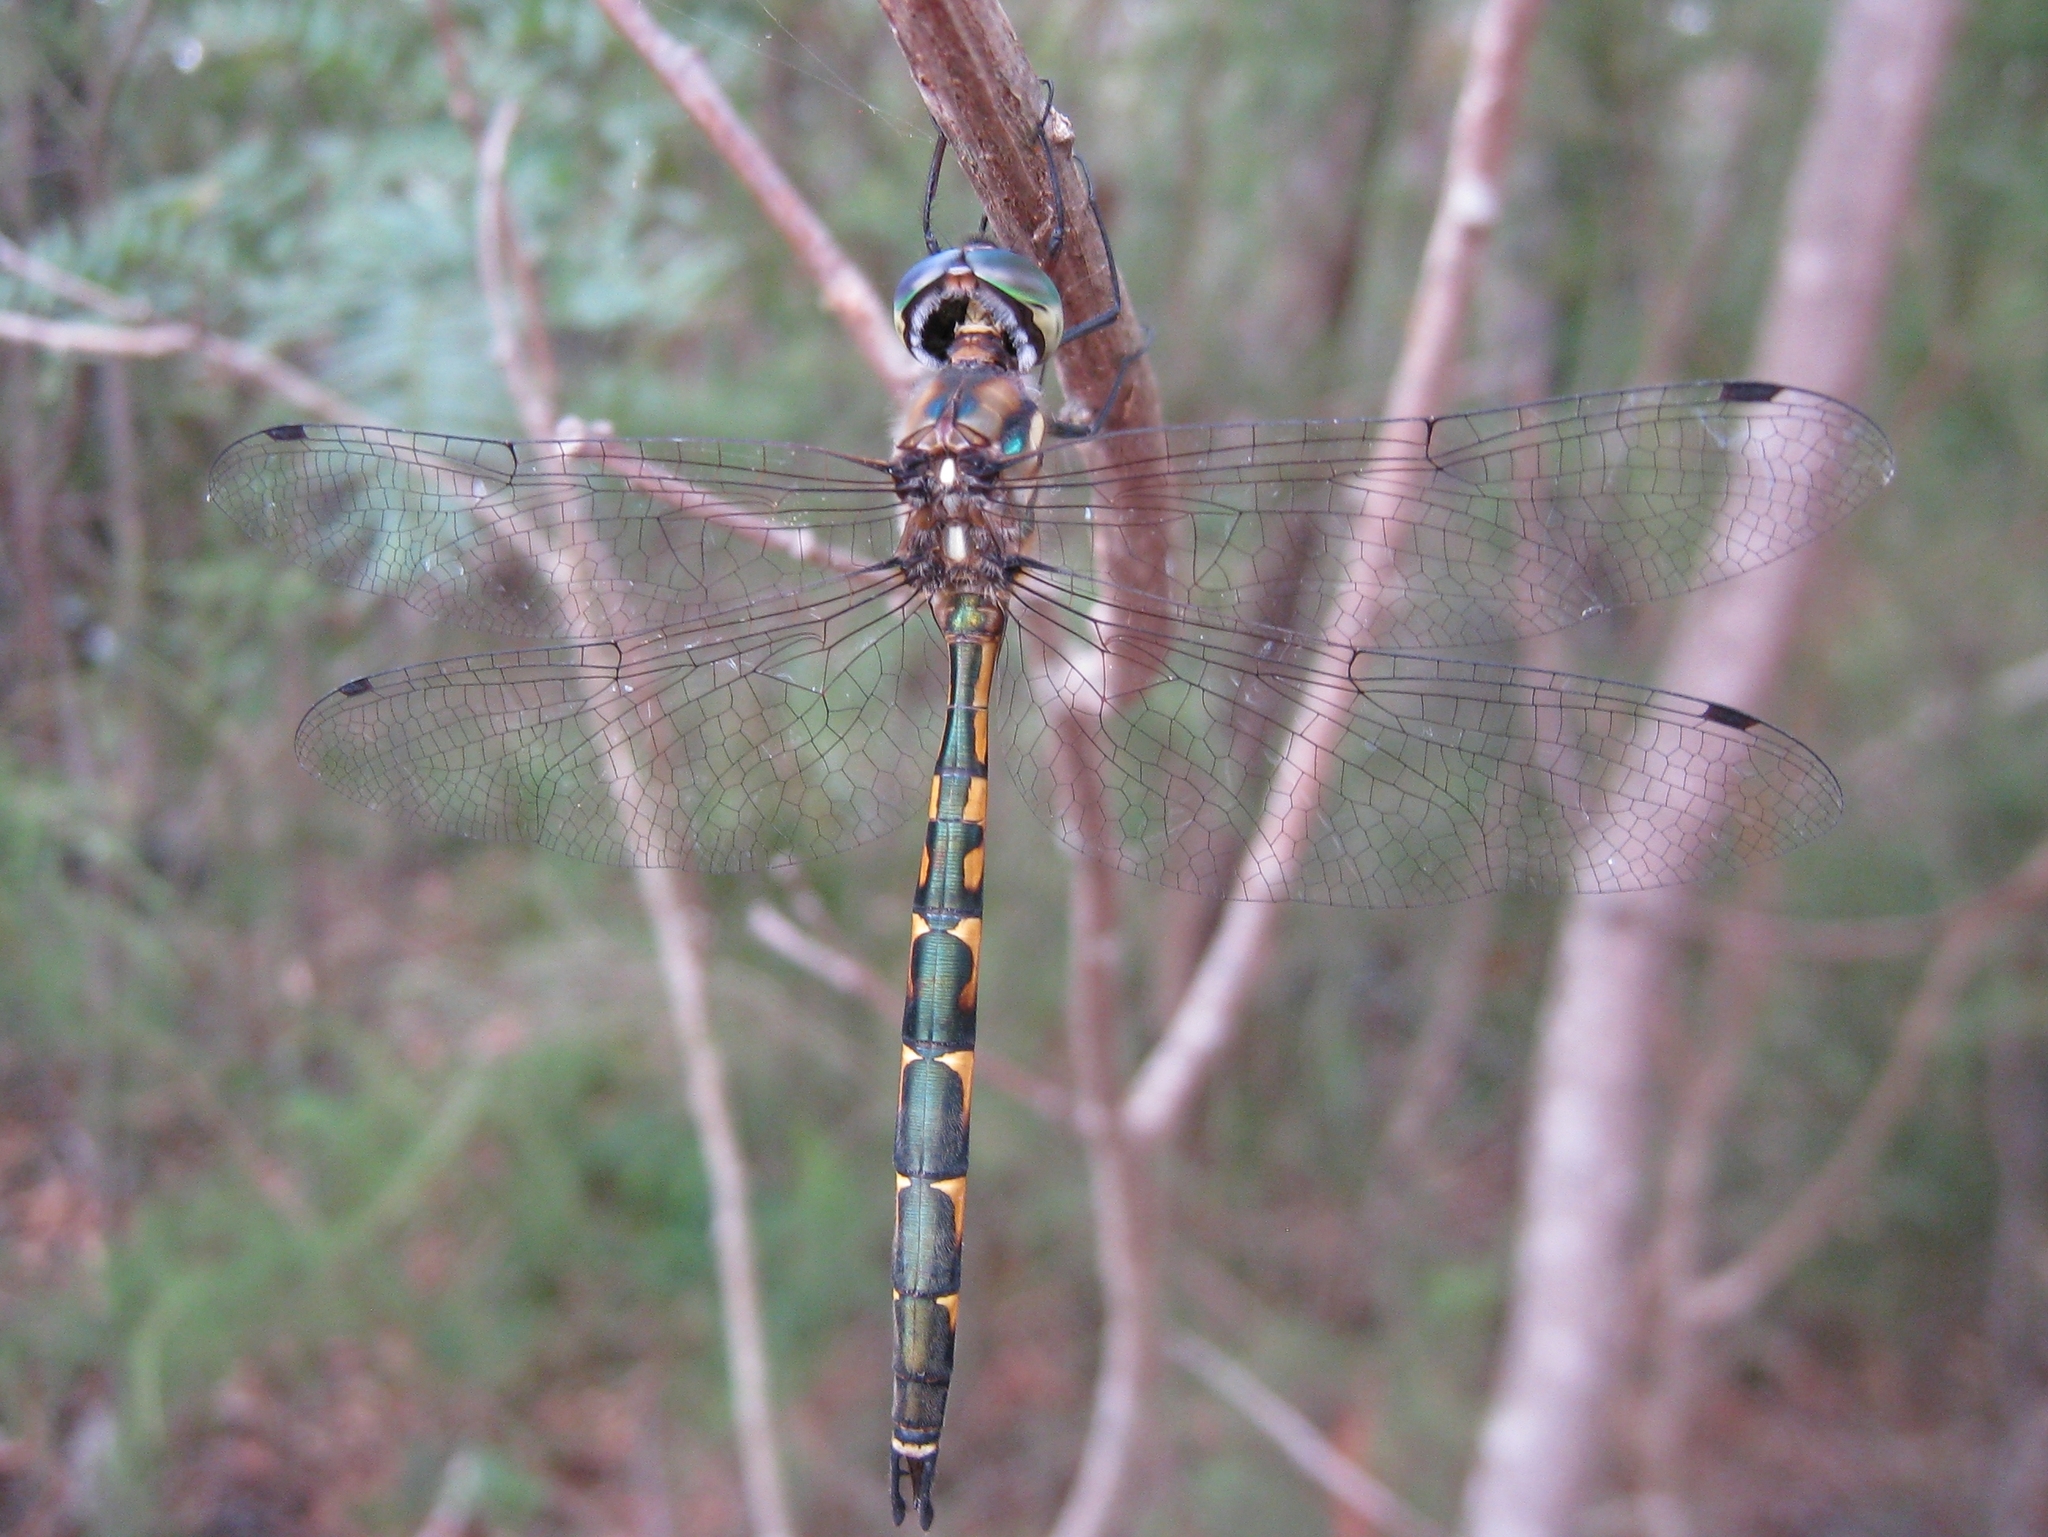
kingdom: Animalia
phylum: Arthropoda
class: Insecta
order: Odonata
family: Corduliidae
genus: Hemicordulia
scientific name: Hemicordulia australiae
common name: Sentry dragonfly
